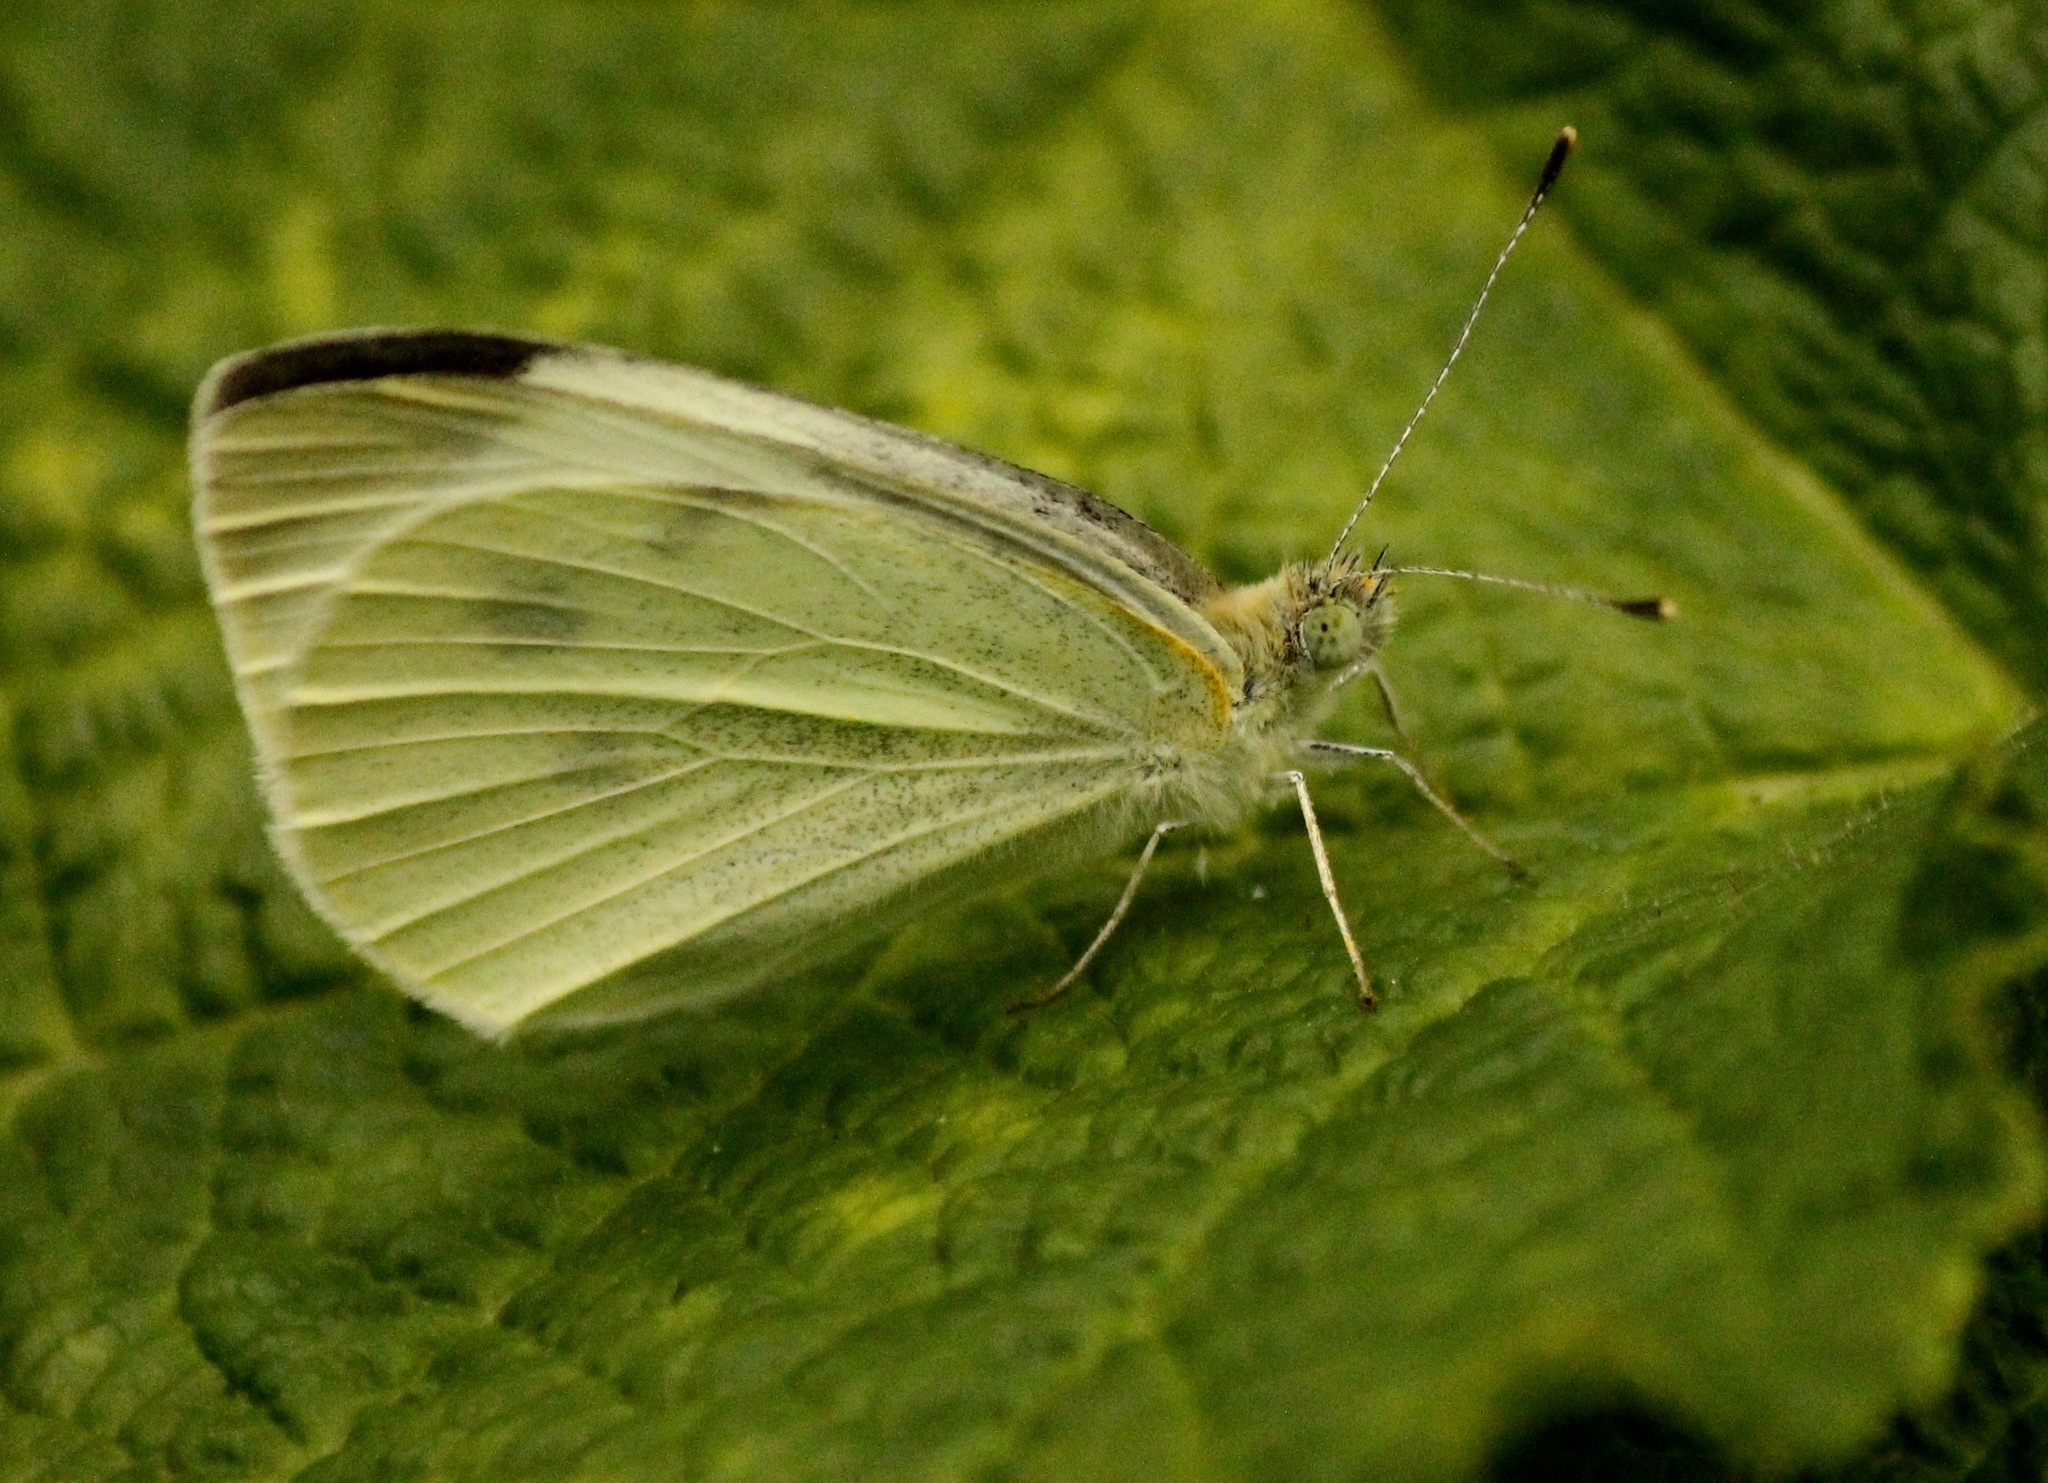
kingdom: Animalia
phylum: Arthropoda
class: Insecta
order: Lepidoptera
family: Pieridae
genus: Pieris
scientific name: Pieris rapae
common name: Small white
